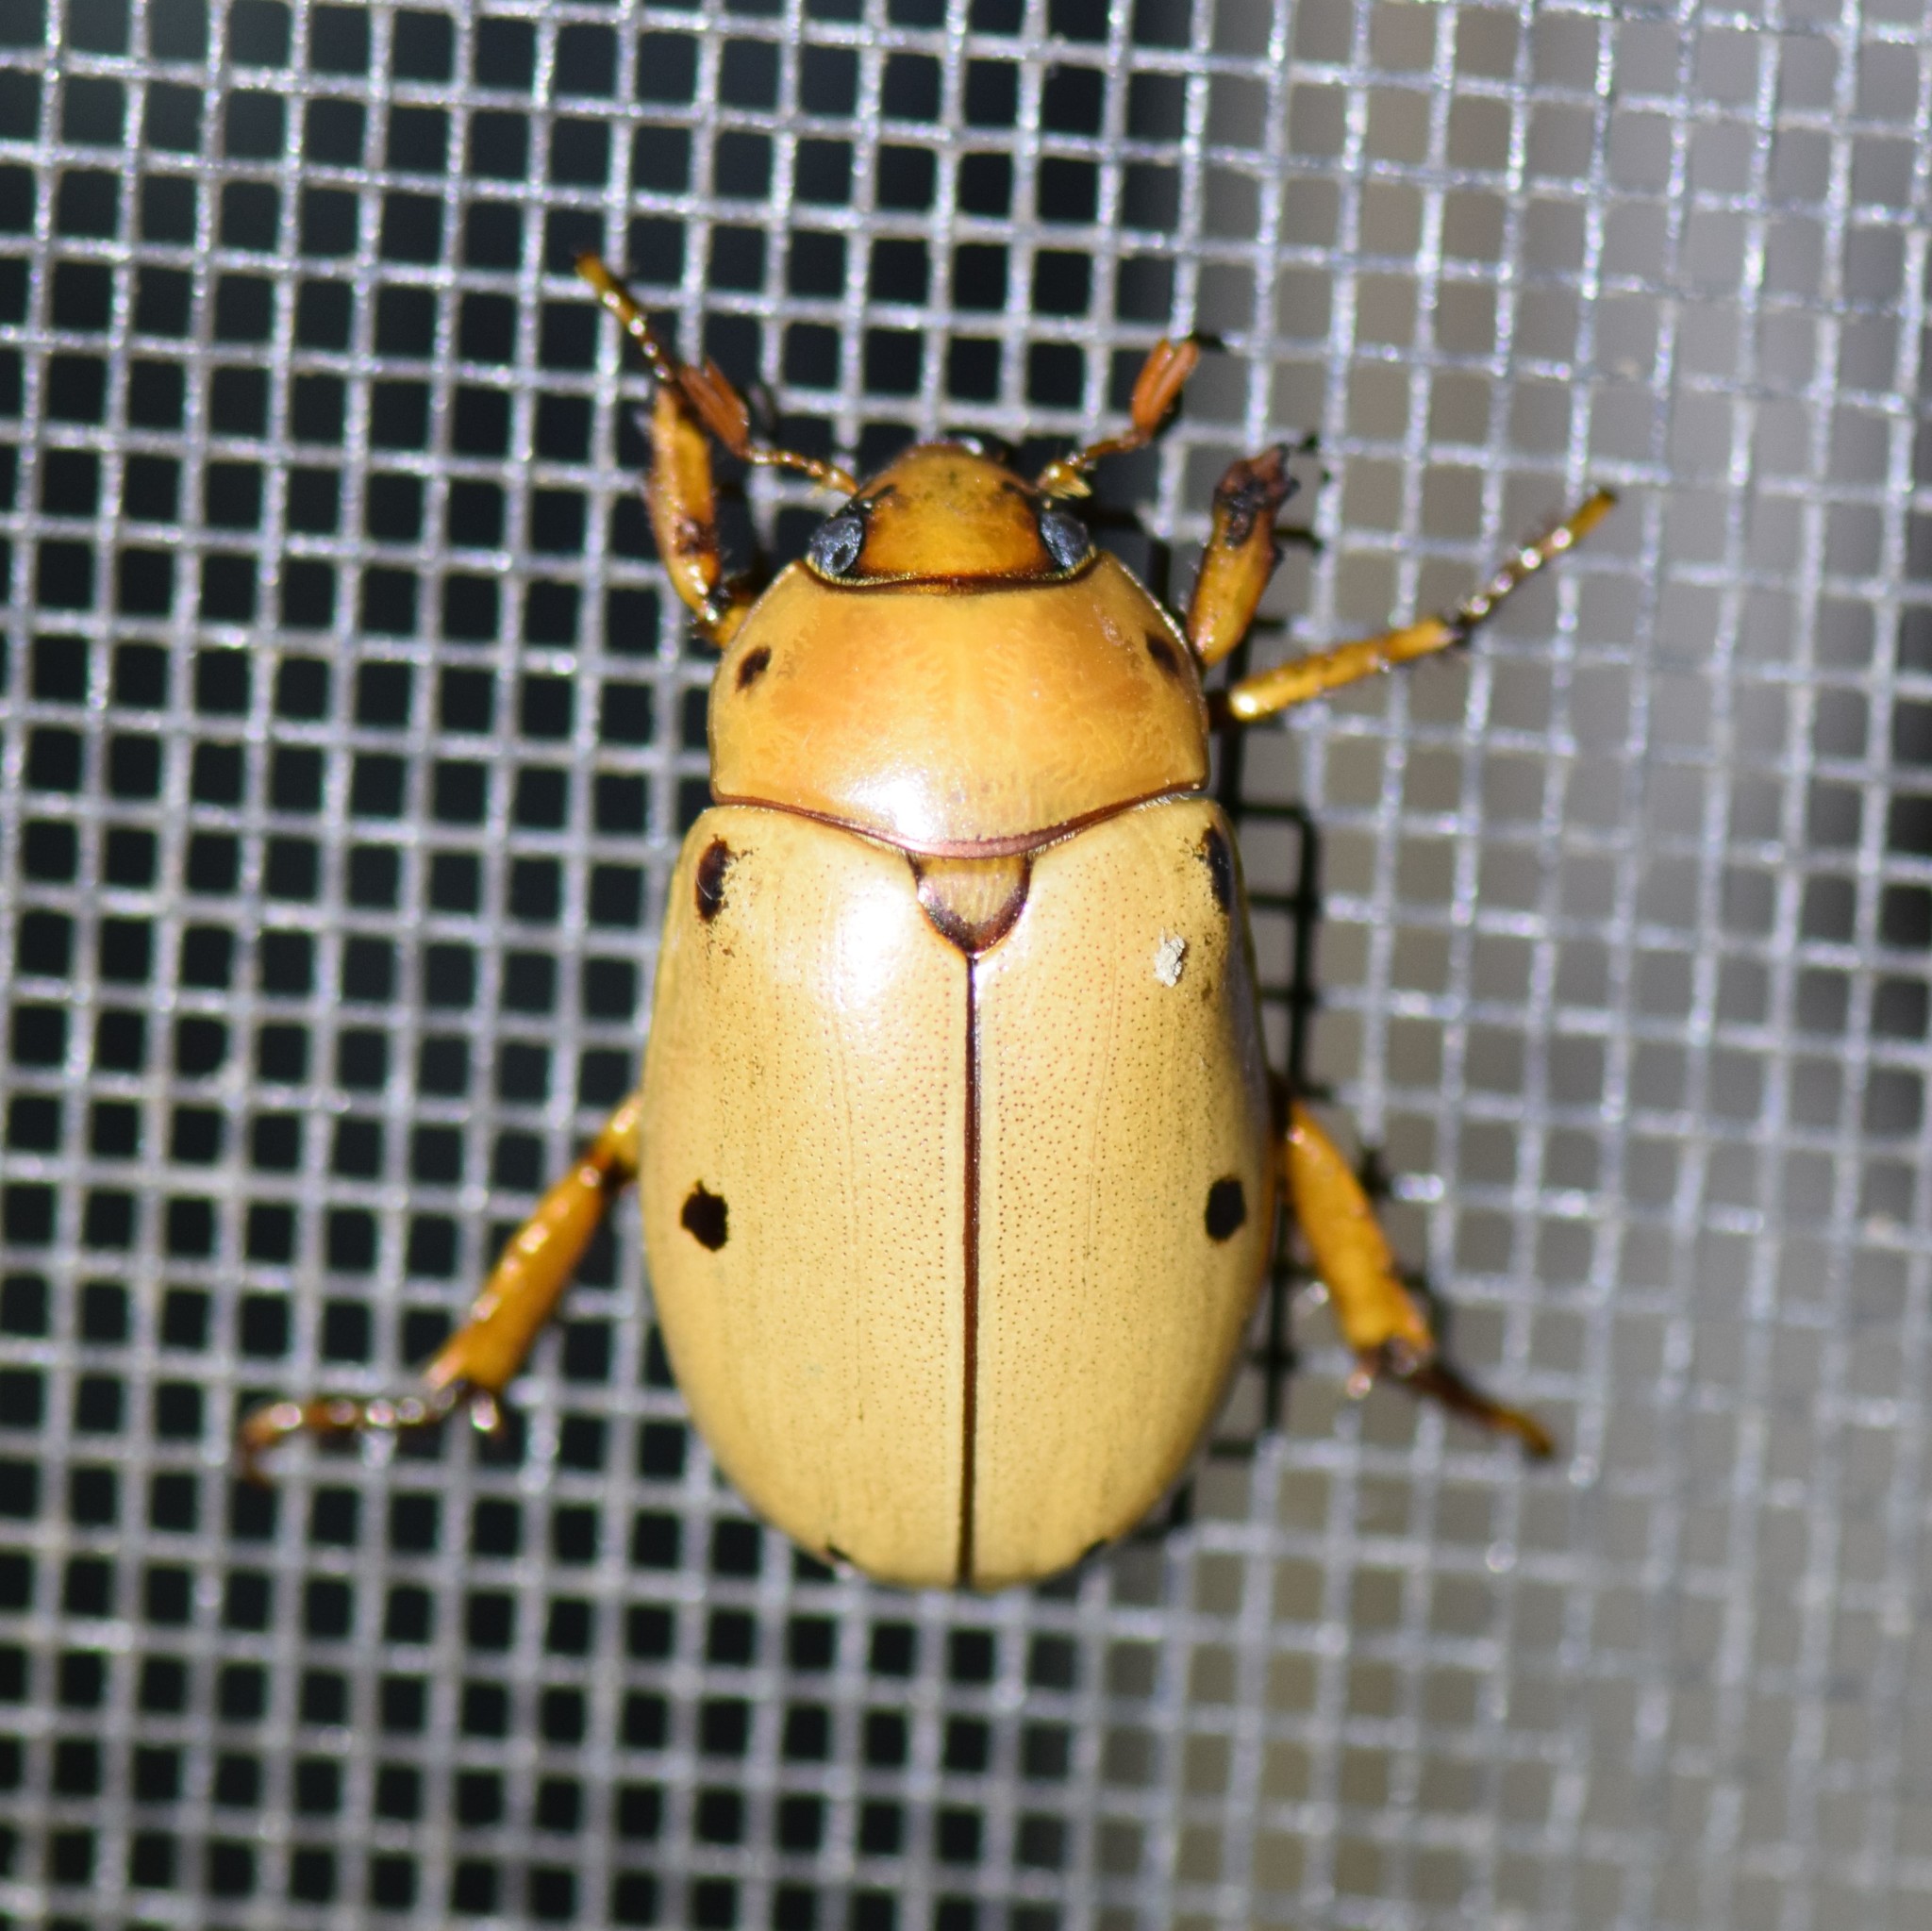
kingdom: Animalia
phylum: Arthropoda
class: Insecta
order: Coleoptera
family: Scarabaeidae
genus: Pelidnota
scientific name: Pelidnota punctata
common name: Grapevine beetle
